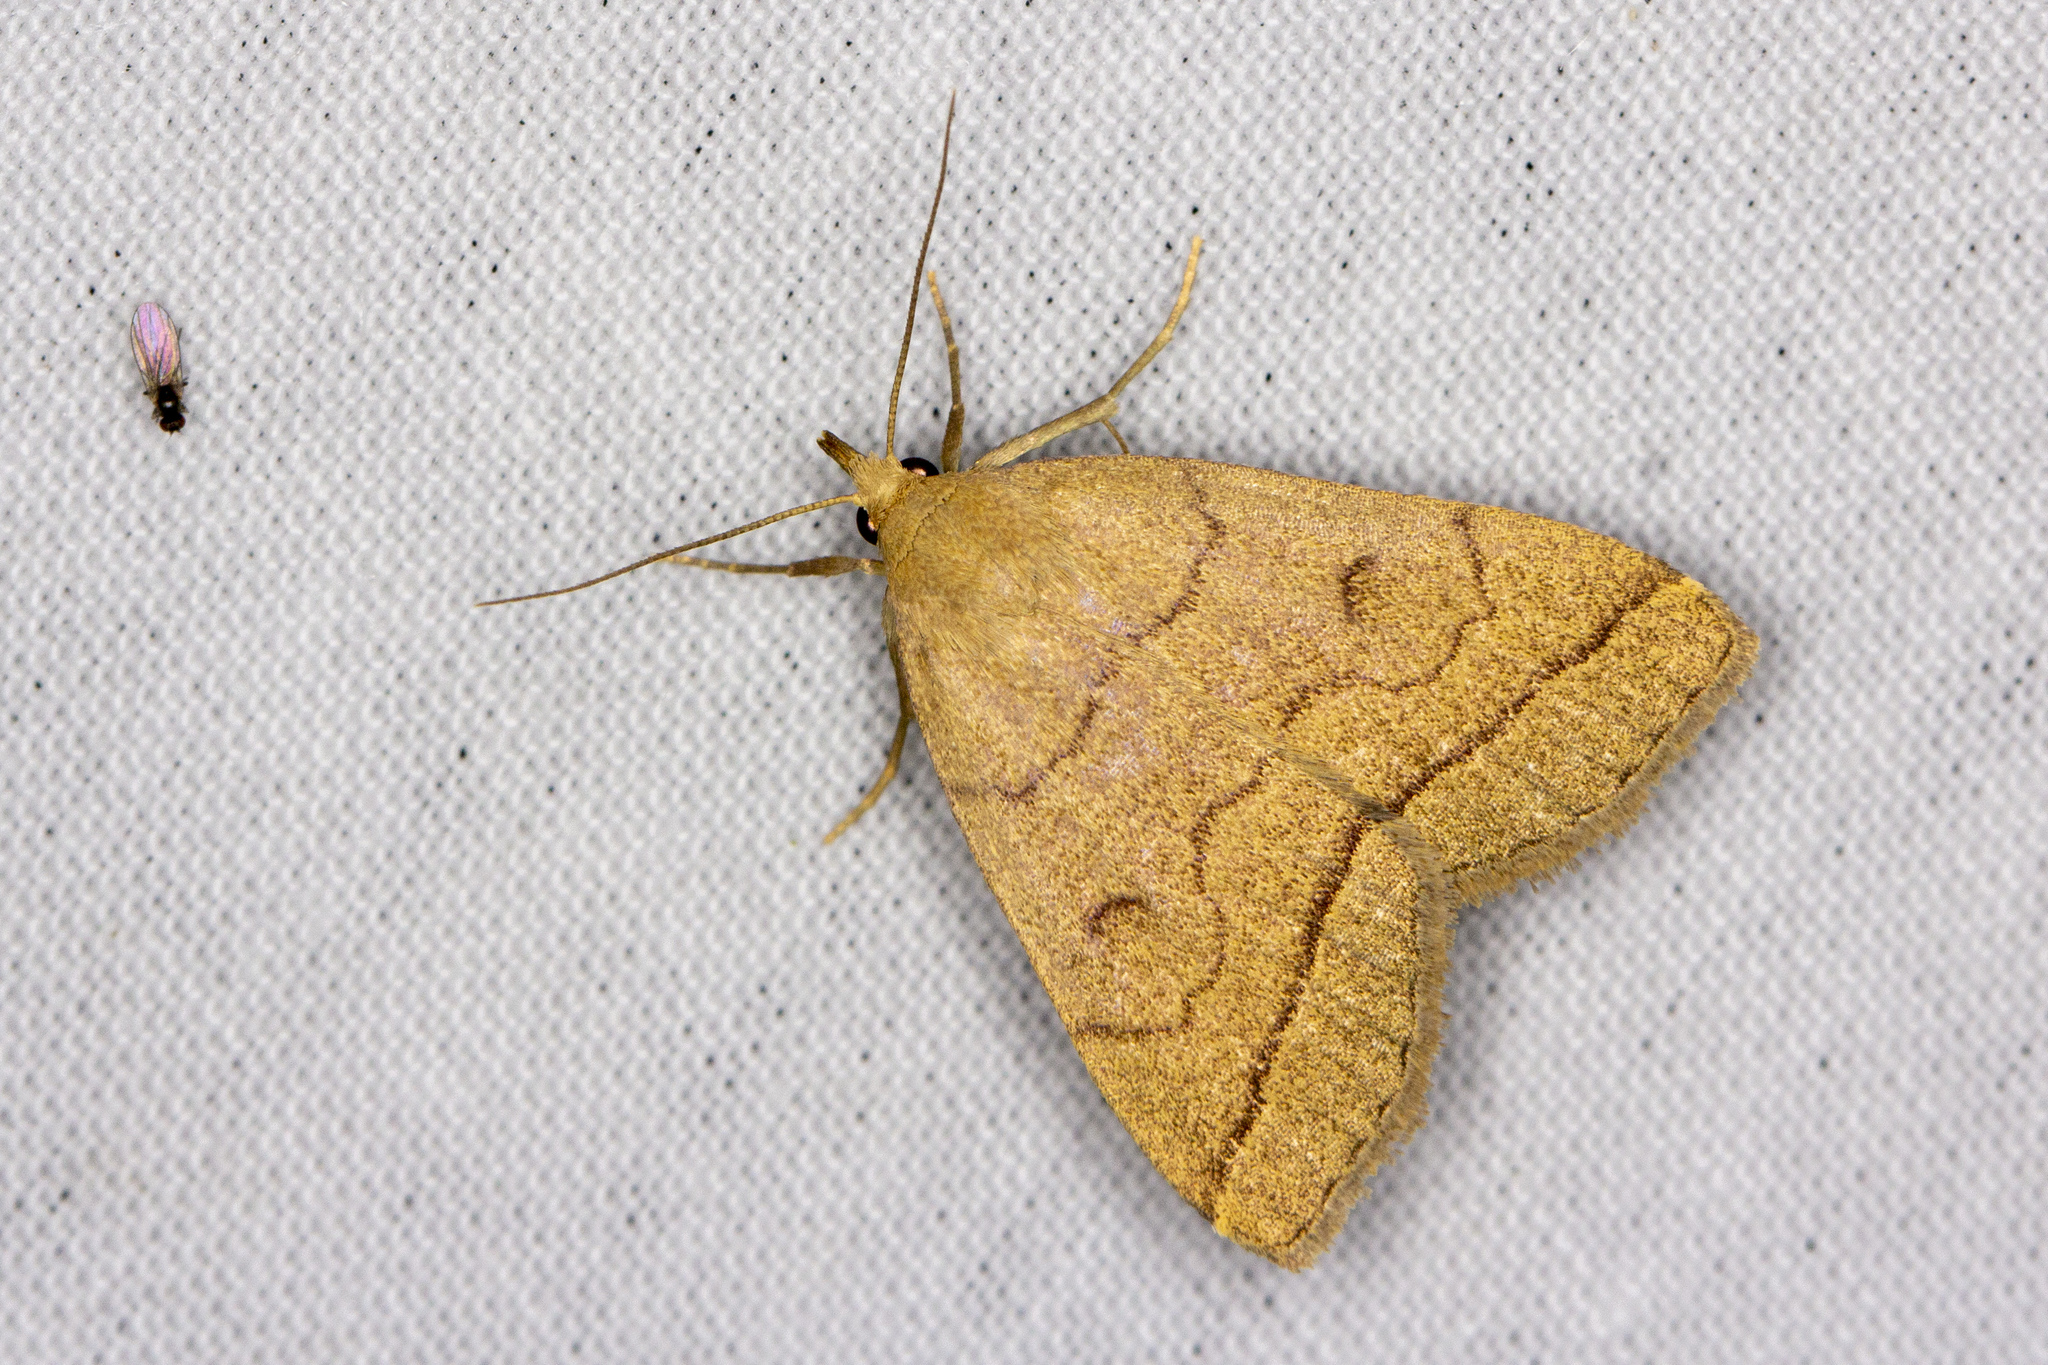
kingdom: Animalia
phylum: Arthropoda
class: Insecta
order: Lepidoptera
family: Erebidae
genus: Herminia
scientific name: Herminia tarsipennalis
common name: Fan-foot
